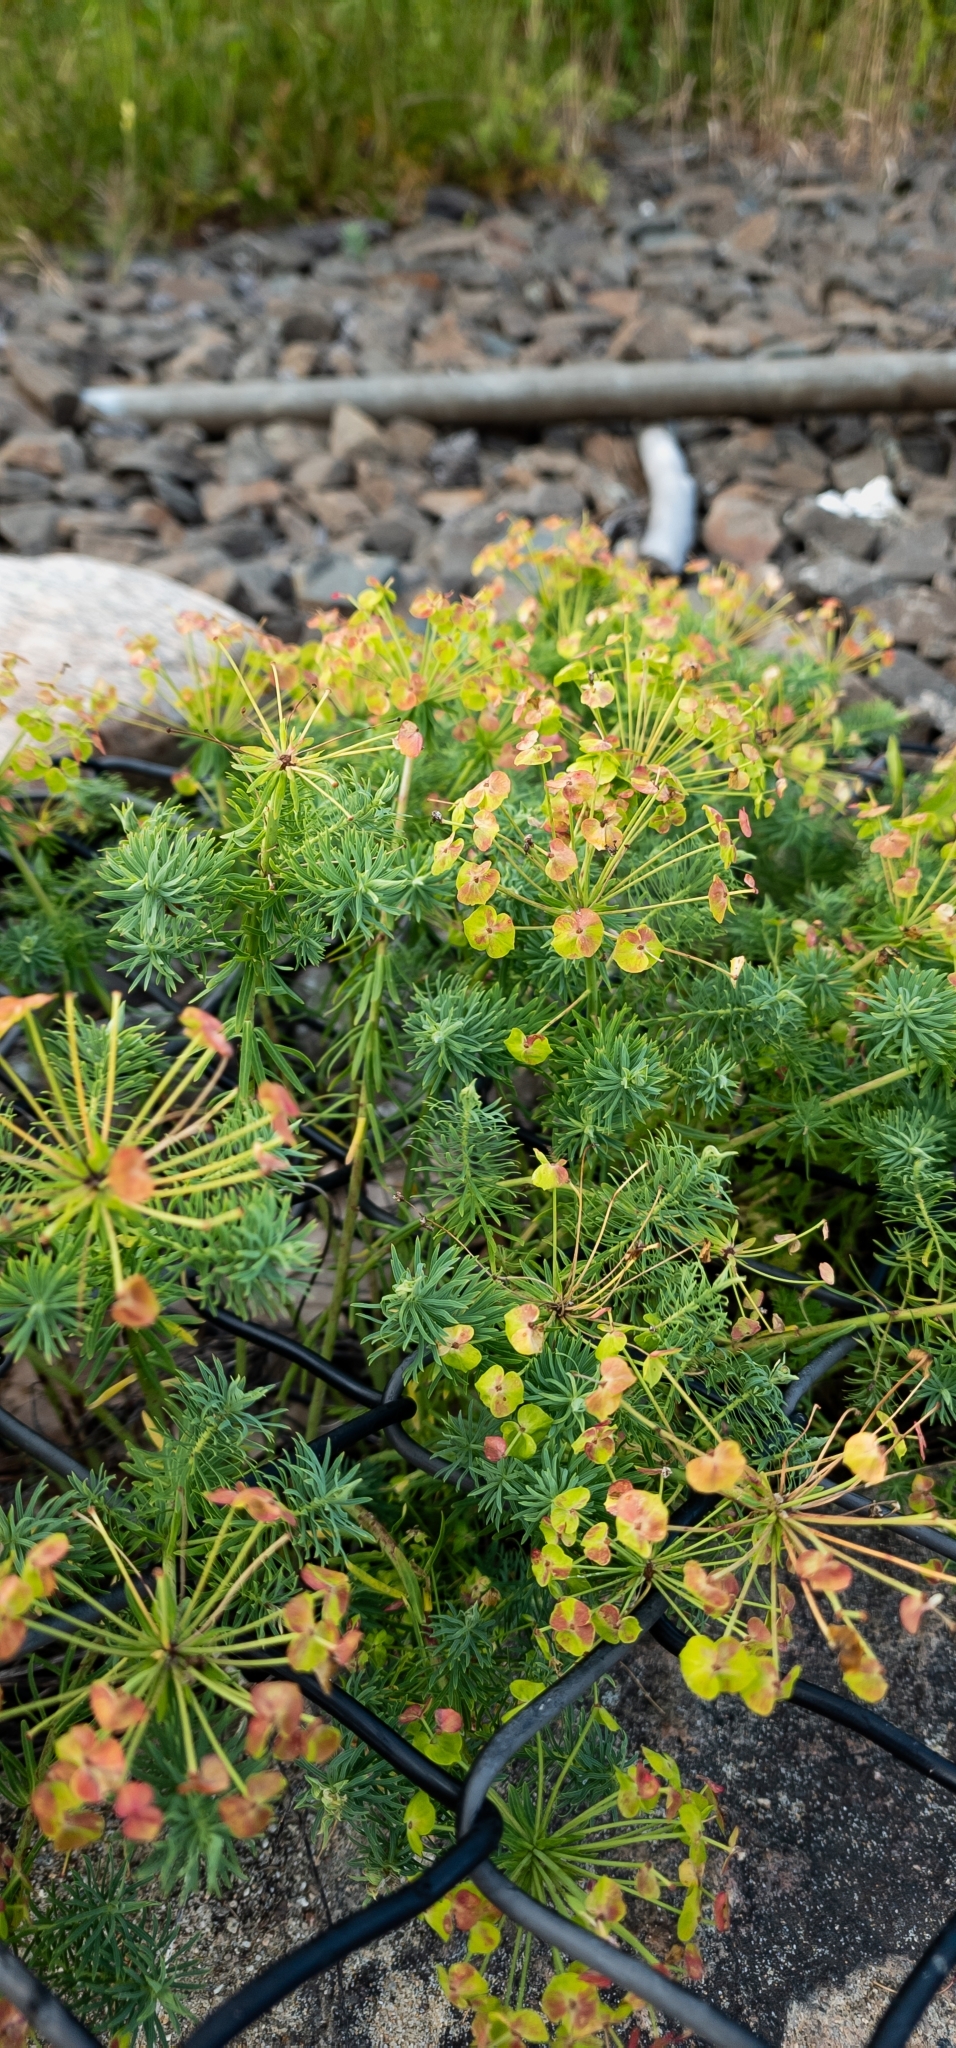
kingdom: Plantae
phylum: Tracheophyta
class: Magnoliopsida
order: Malpighiales
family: Euphorbiaceae
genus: Euphorbia
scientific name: Euphorbia cyparissias
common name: Cypress spurge
